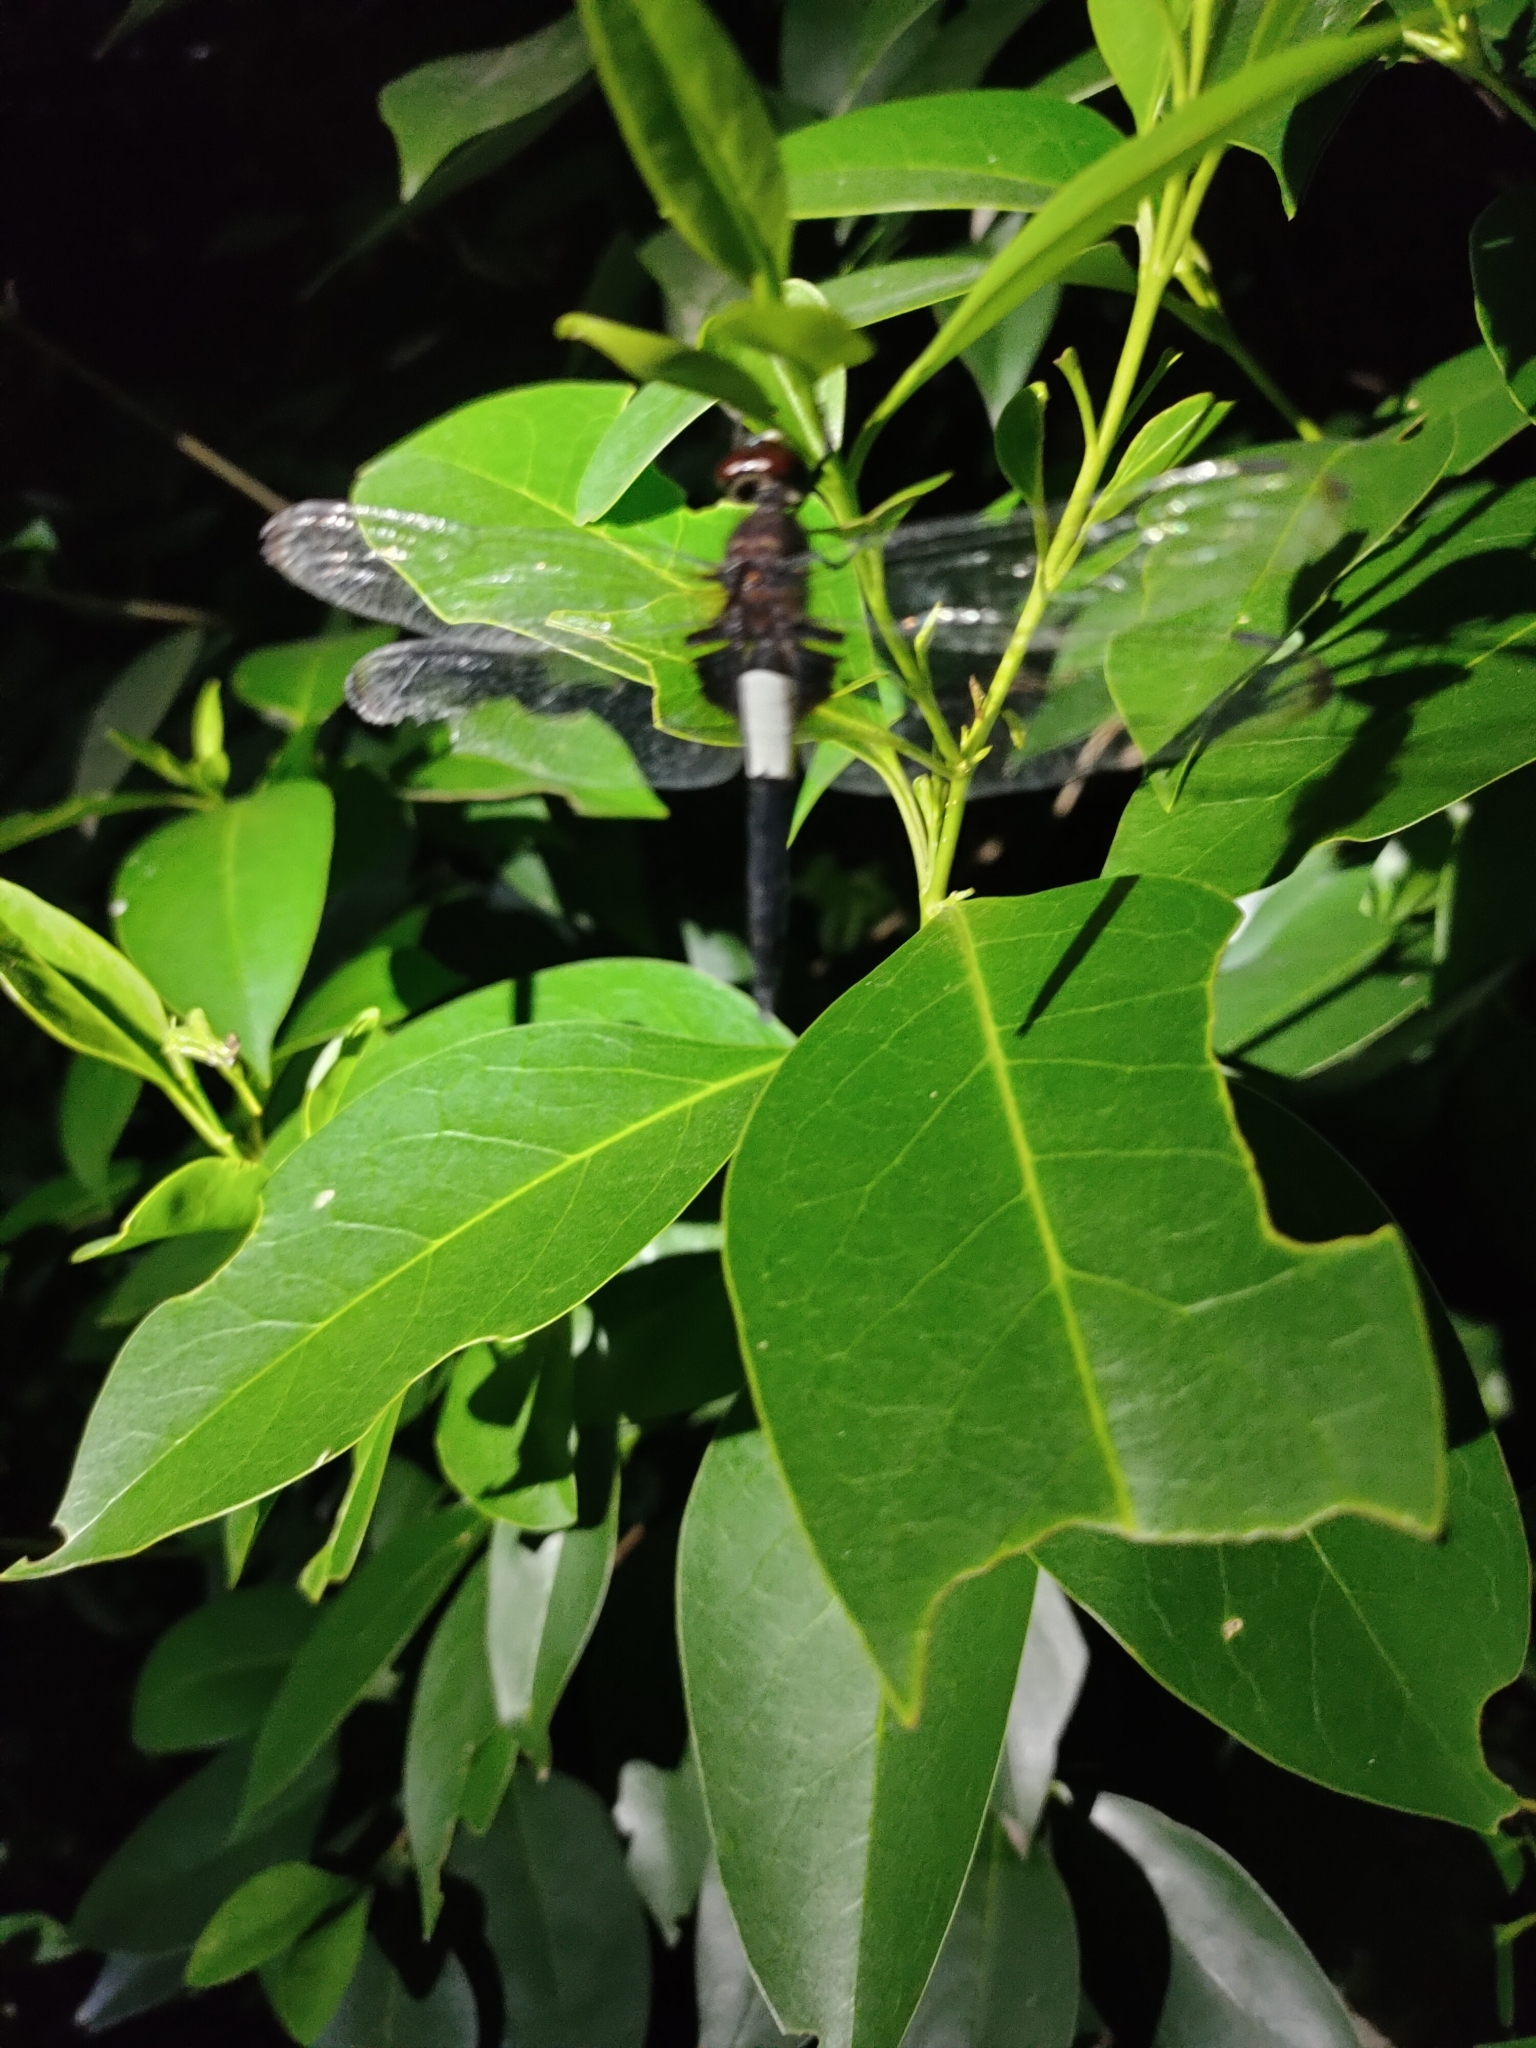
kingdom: Animalia
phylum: Arthropoda
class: Insecta
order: Odonata
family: Libellulidae
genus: Pseudothemis
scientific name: Pseudothemis zonata
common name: Pied skimmer
